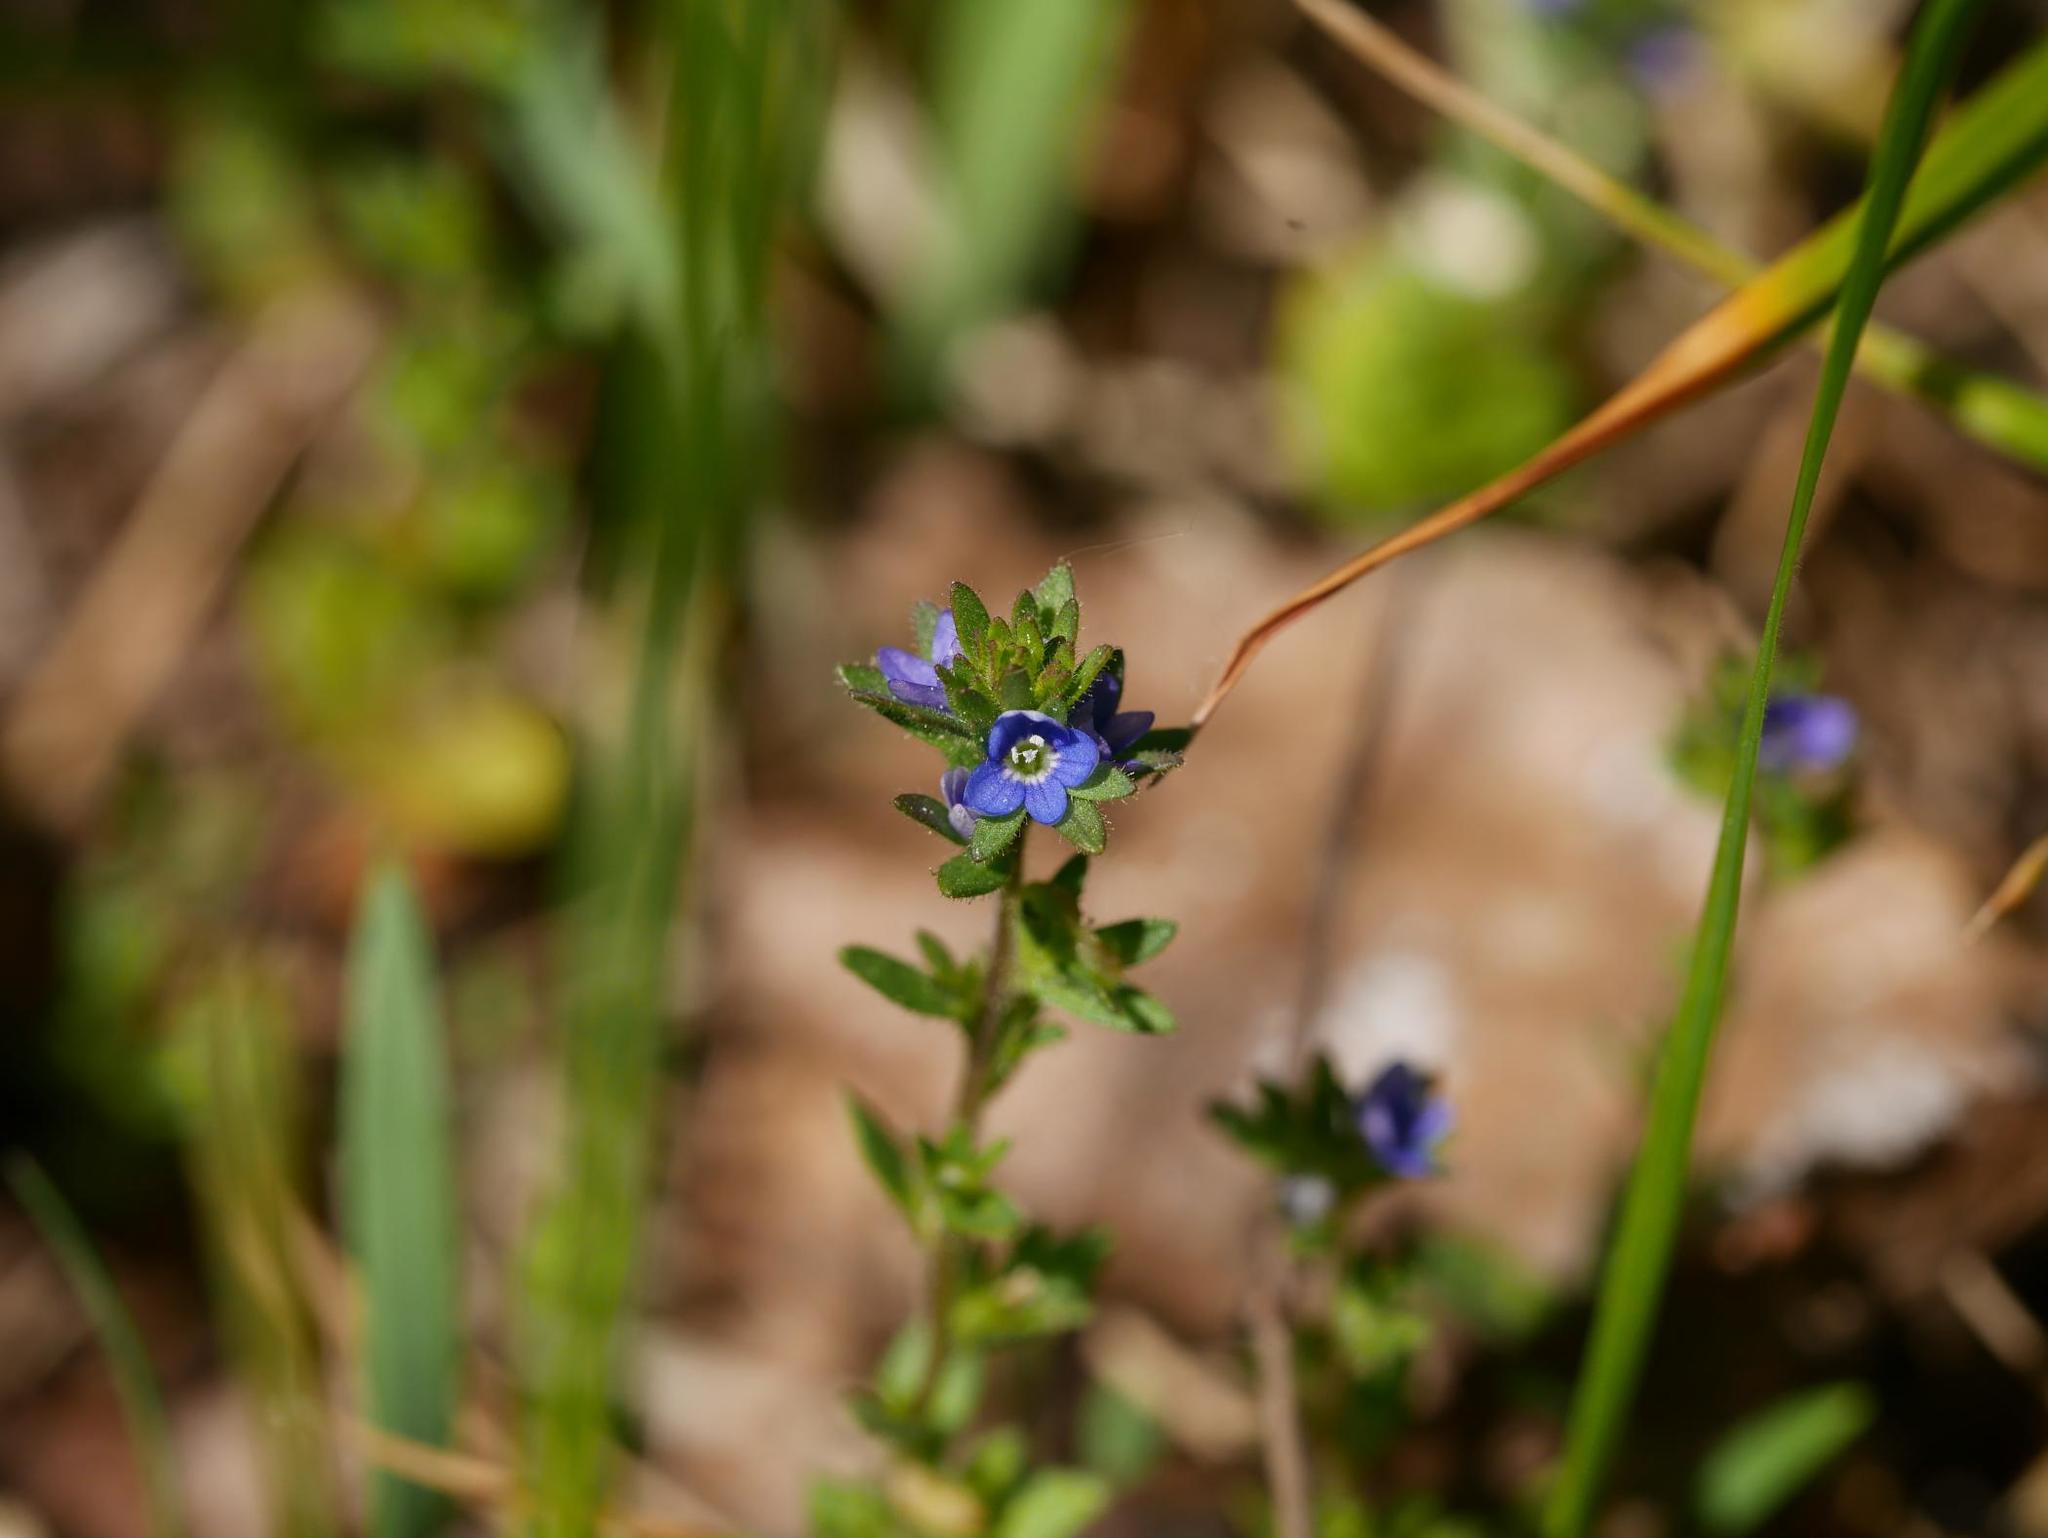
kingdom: Plantae
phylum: Tracheophyta
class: Magnoliopsida
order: Lamiales
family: Plantaginaceae
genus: Veronica
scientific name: Veronica arvensis
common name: Corn speedwell
